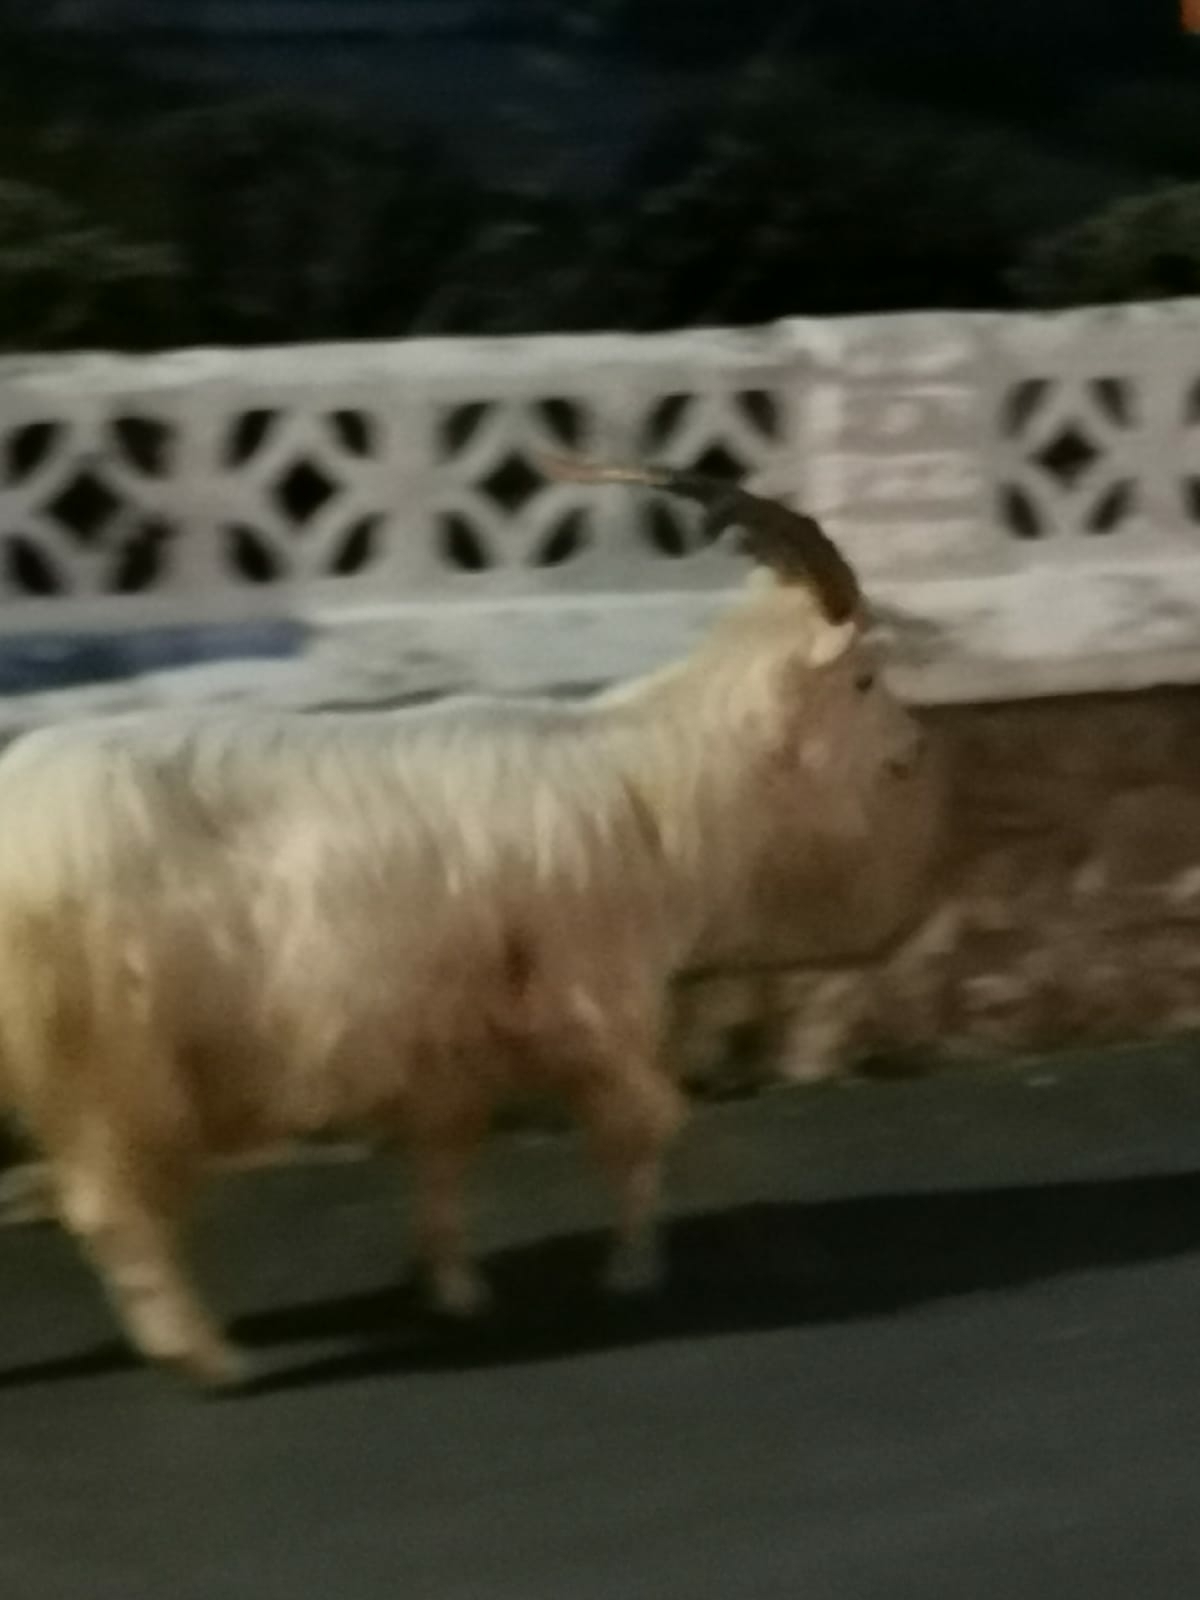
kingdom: Animalia
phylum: Chordata
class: Mammalia
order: Artiodactyla
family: Bovidae
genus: Capra
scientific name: Capra hircus
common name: Domestic goat
